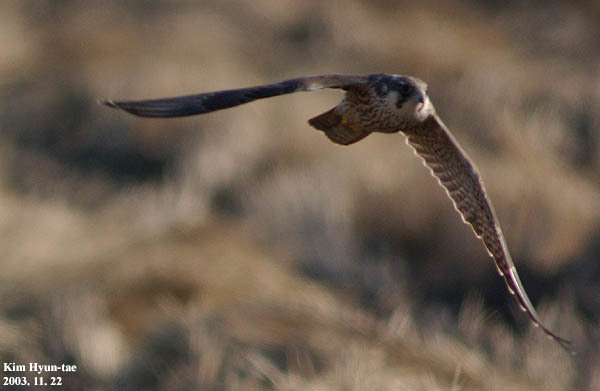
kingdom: Animalia
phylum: Chordata
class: Aves
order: Falconiformes
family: Falconidae
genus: Falco
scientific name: Falco peregrinus
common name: Peregrine falcon
